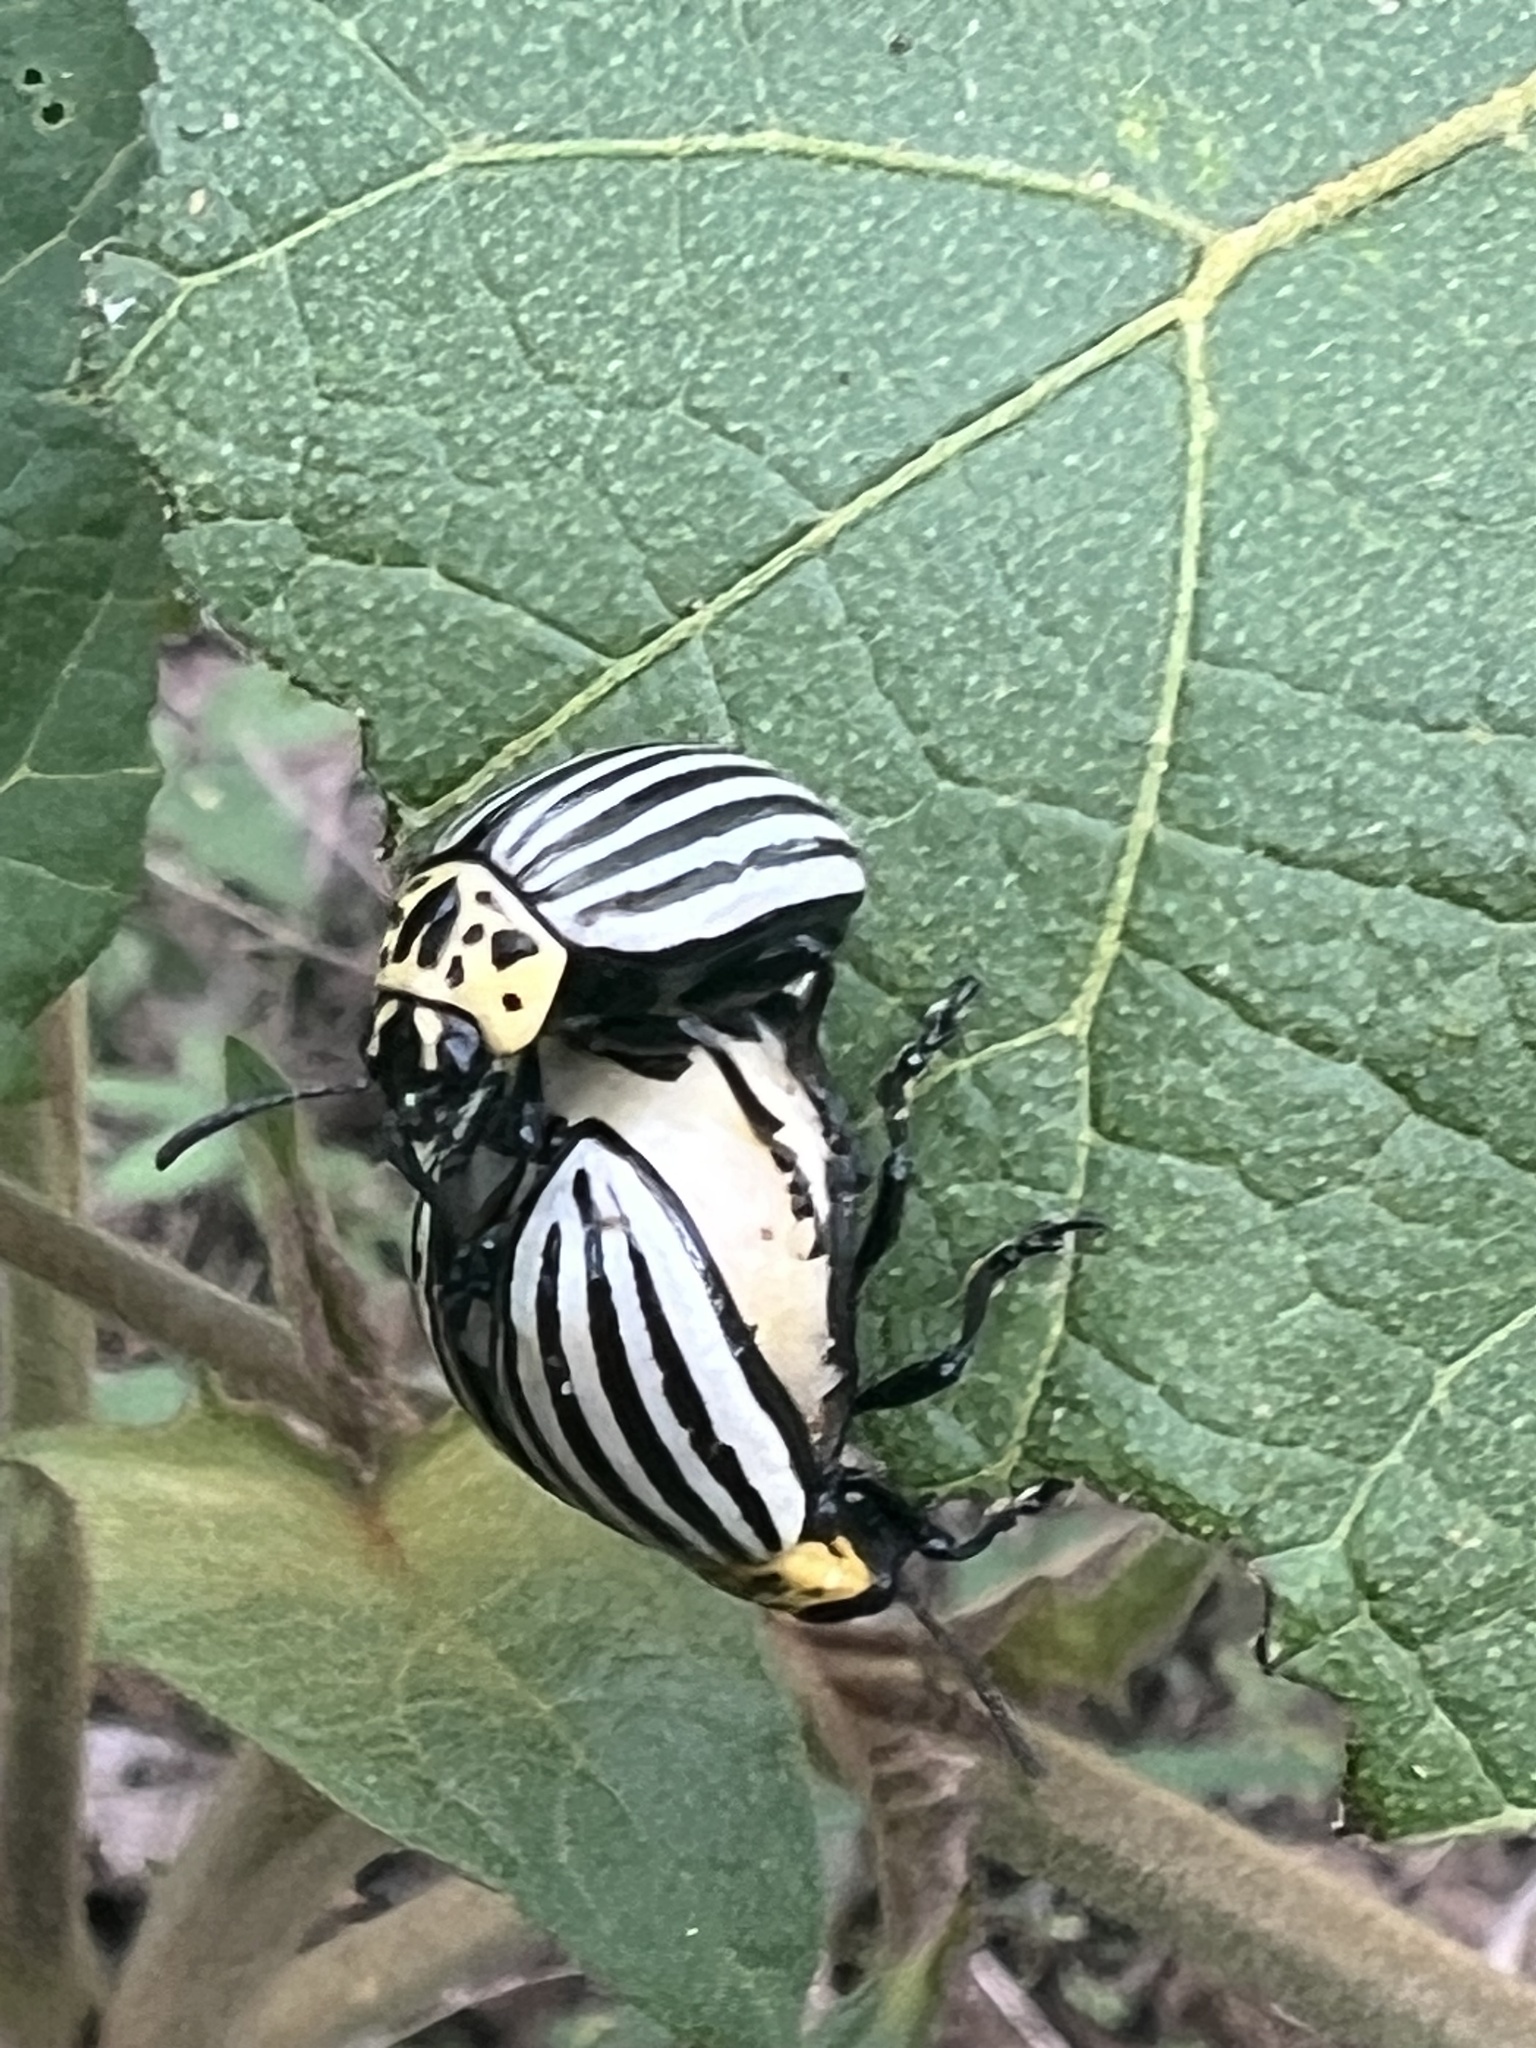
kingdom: Animalia
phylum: Arthropoda
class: Insecta
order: Coleoptera
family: Chrysomelidae
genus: Leptinotarsa
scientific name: Leptinotarsa
